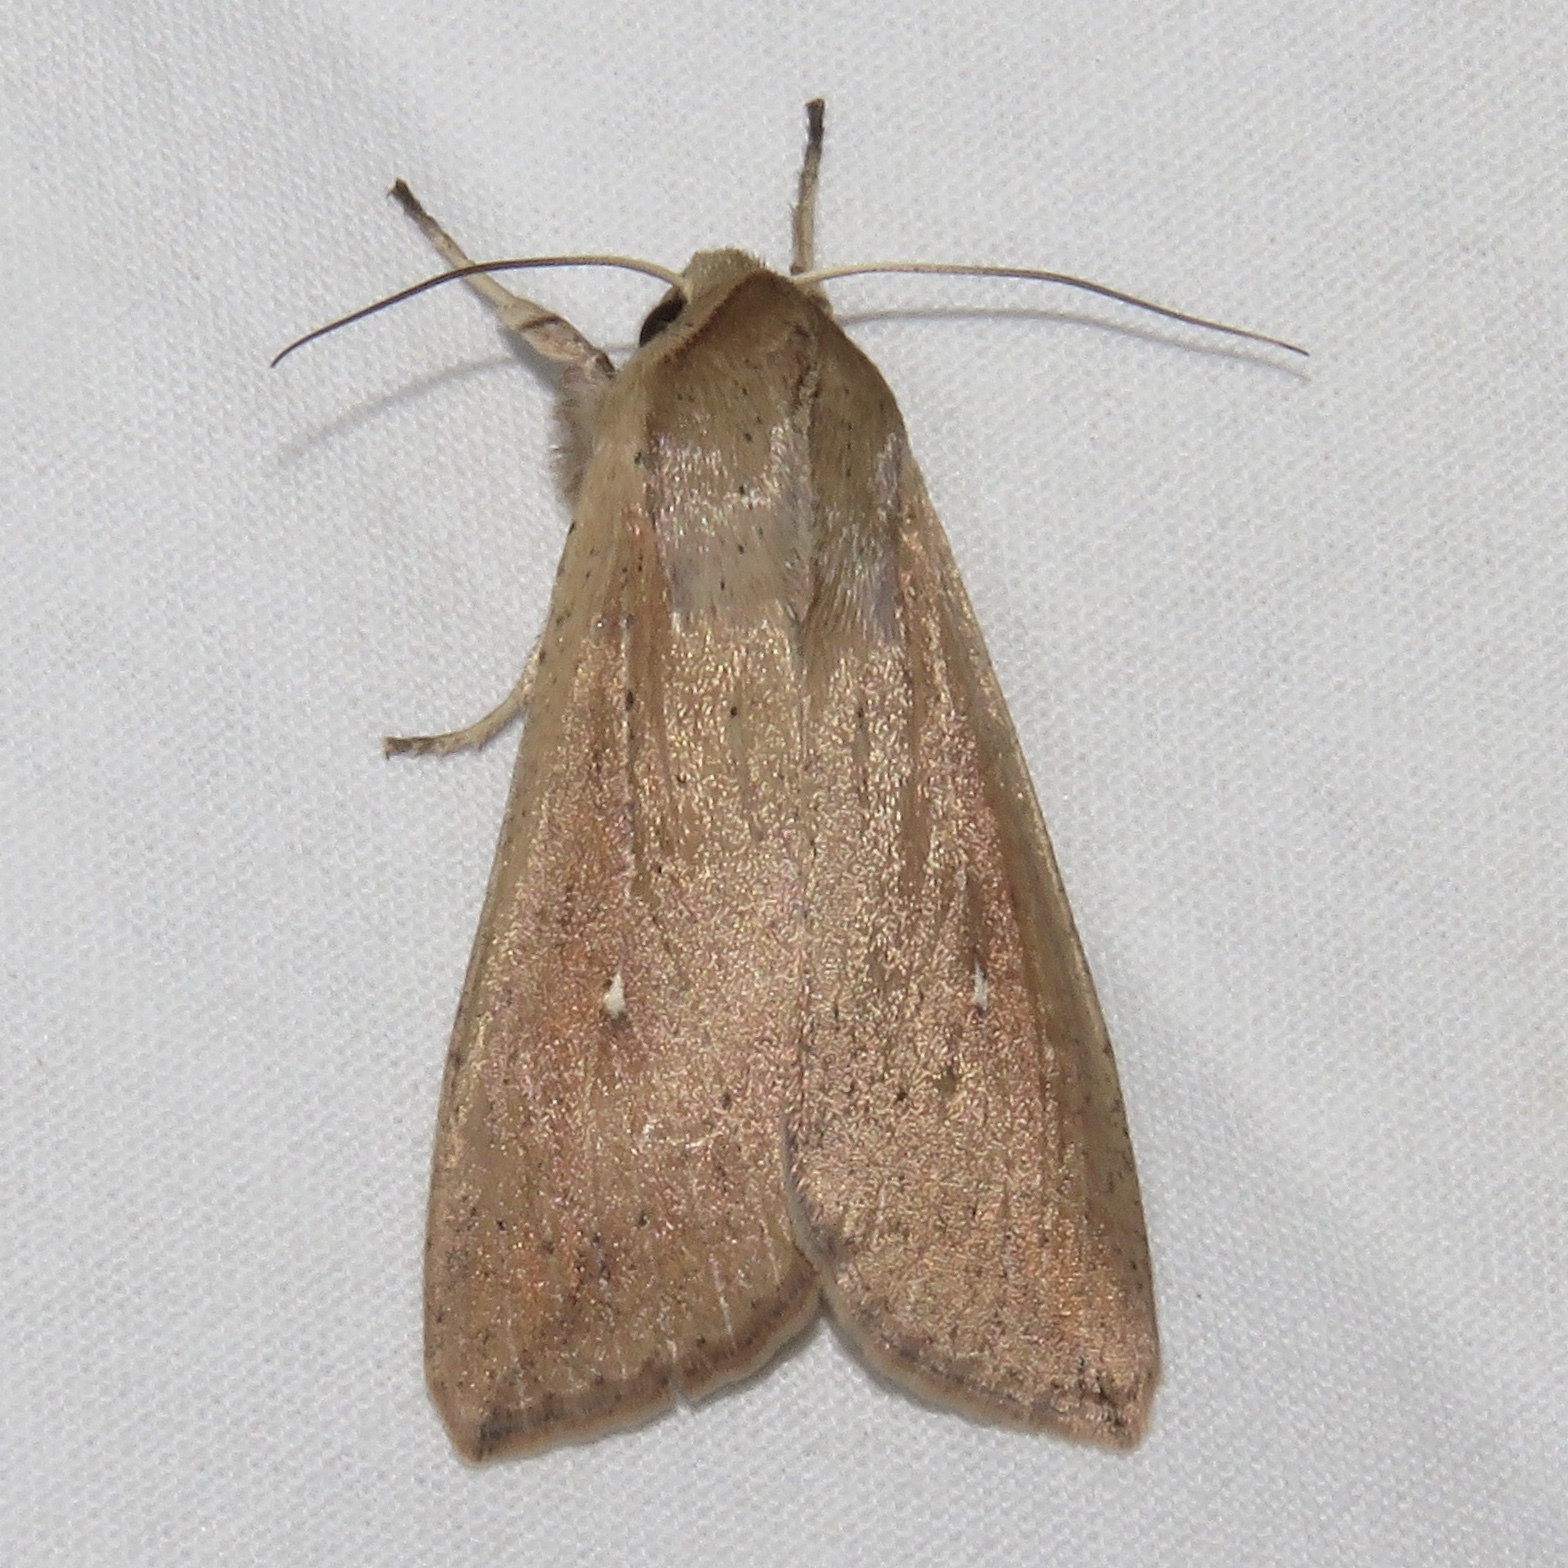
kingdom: Animalia
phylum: Arthropoda
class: Insecta
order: Lepidoptera
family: Noctuidae
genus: Mythimna
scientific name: Mythimna unipuncta
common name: White-speck
